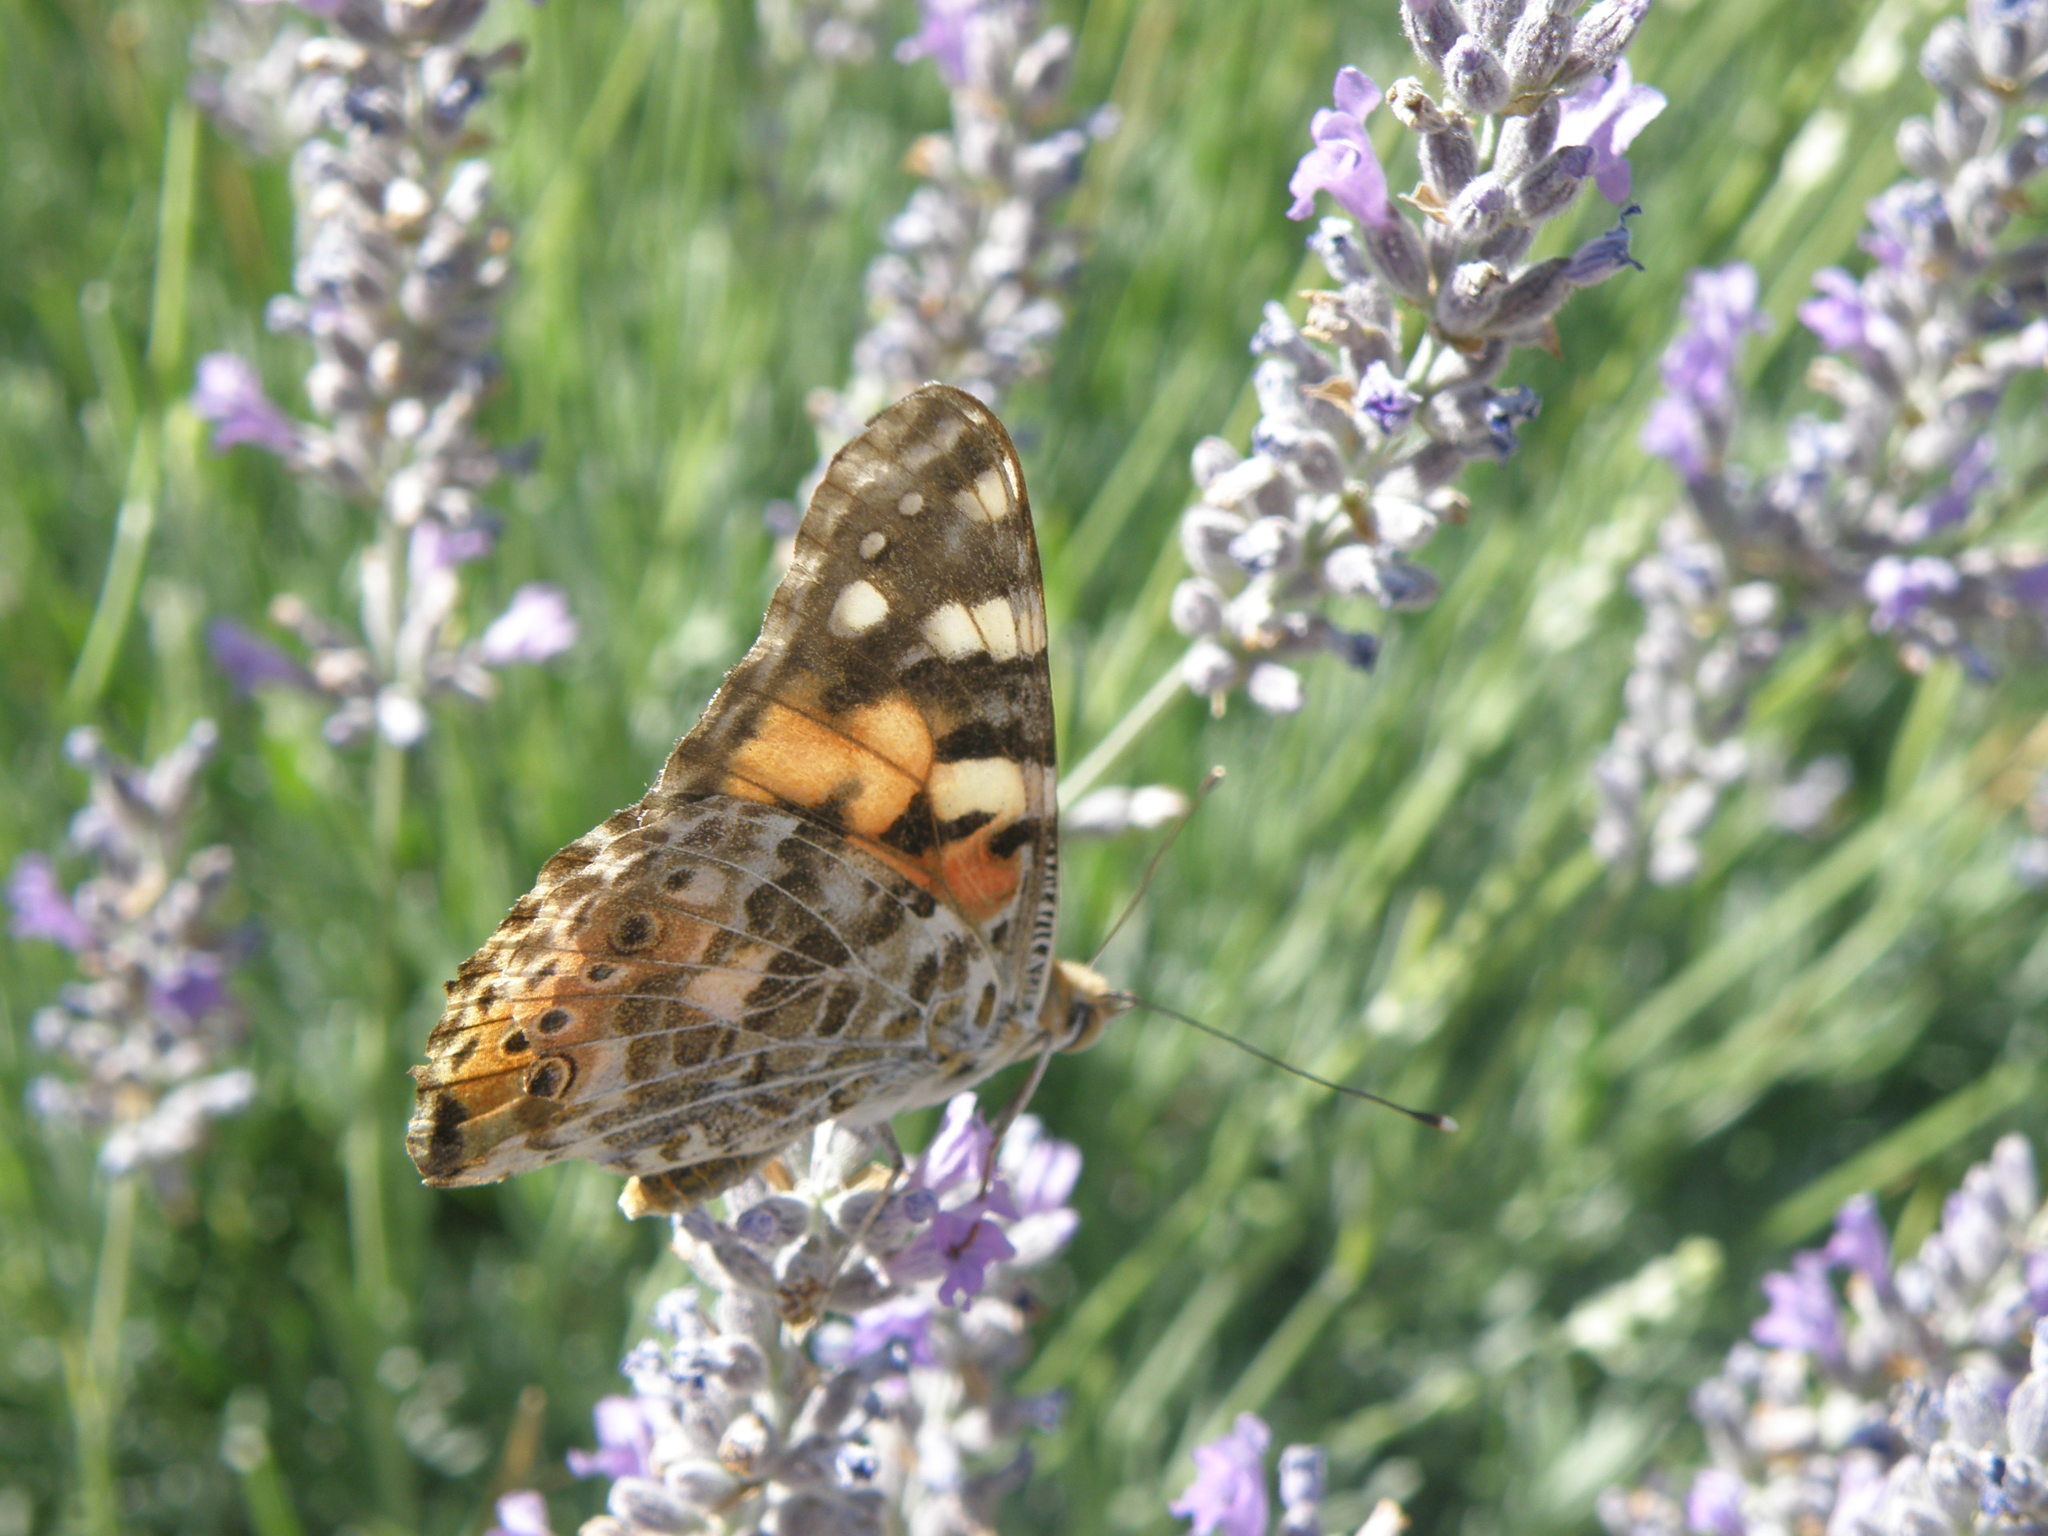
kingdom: Animalia
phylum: Arthropoda
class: Insecta
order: Lepidoptera
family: Nymphalidae
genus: Vanessa
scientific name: Vanessa cardui
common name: Painted lady
